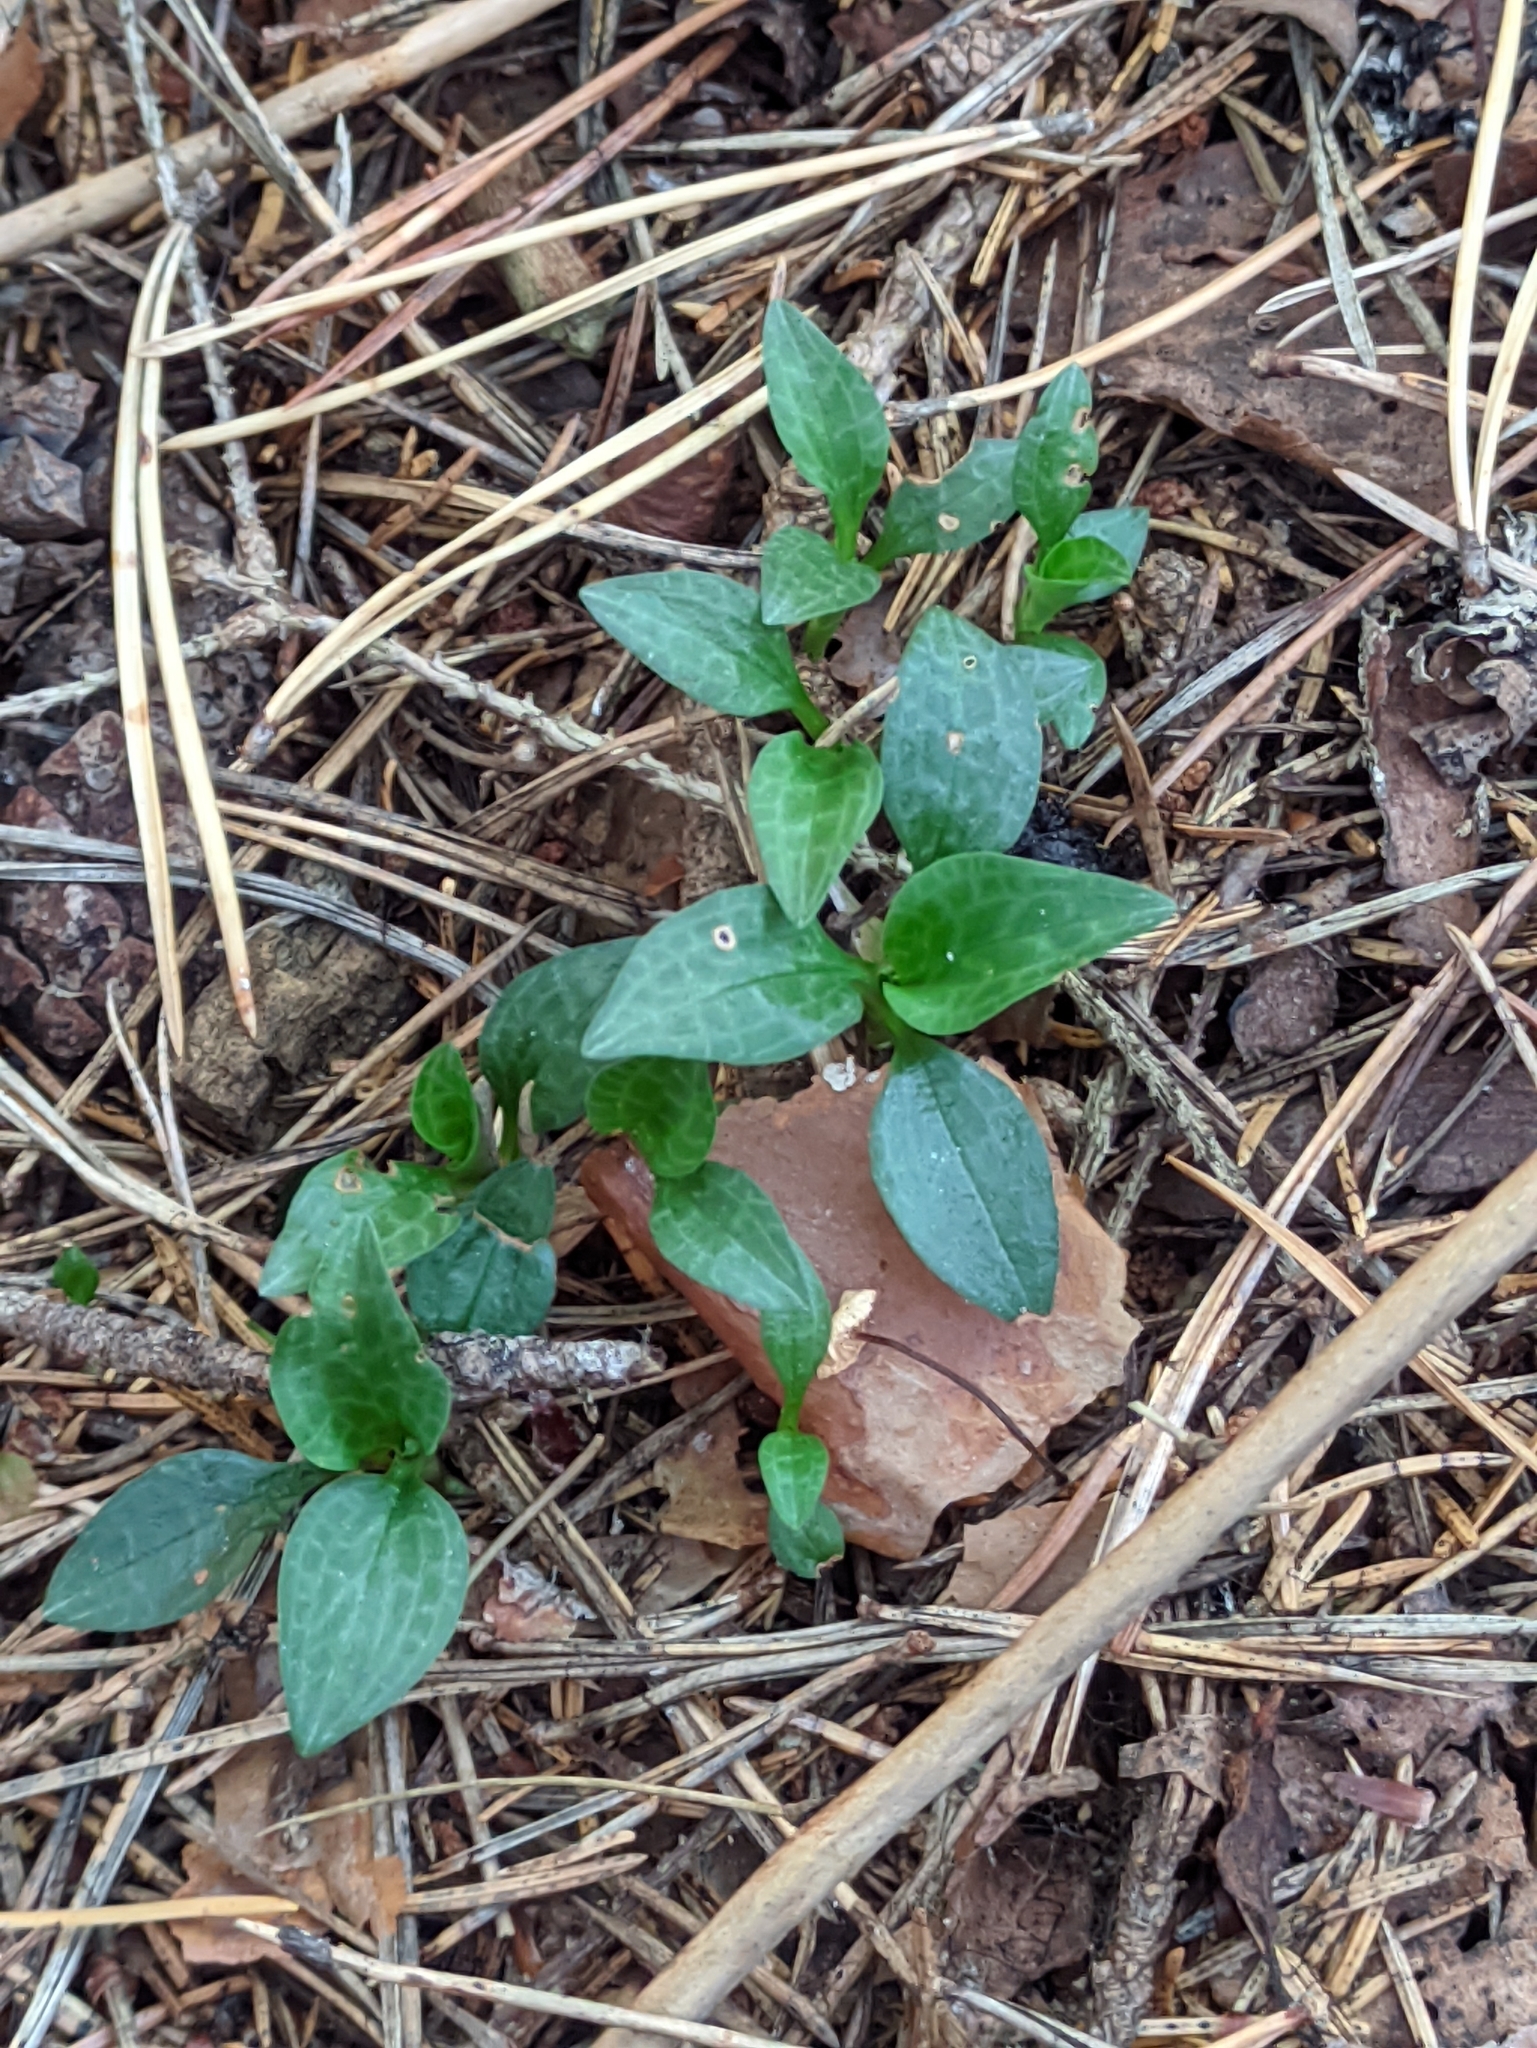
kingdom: Plantae
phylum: Tracheophyta
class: Liliopsida
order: Asparagales
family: Orchidaceae
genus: Goodyera
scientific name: Goodyera repens
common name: Creeping lady's-tresses
